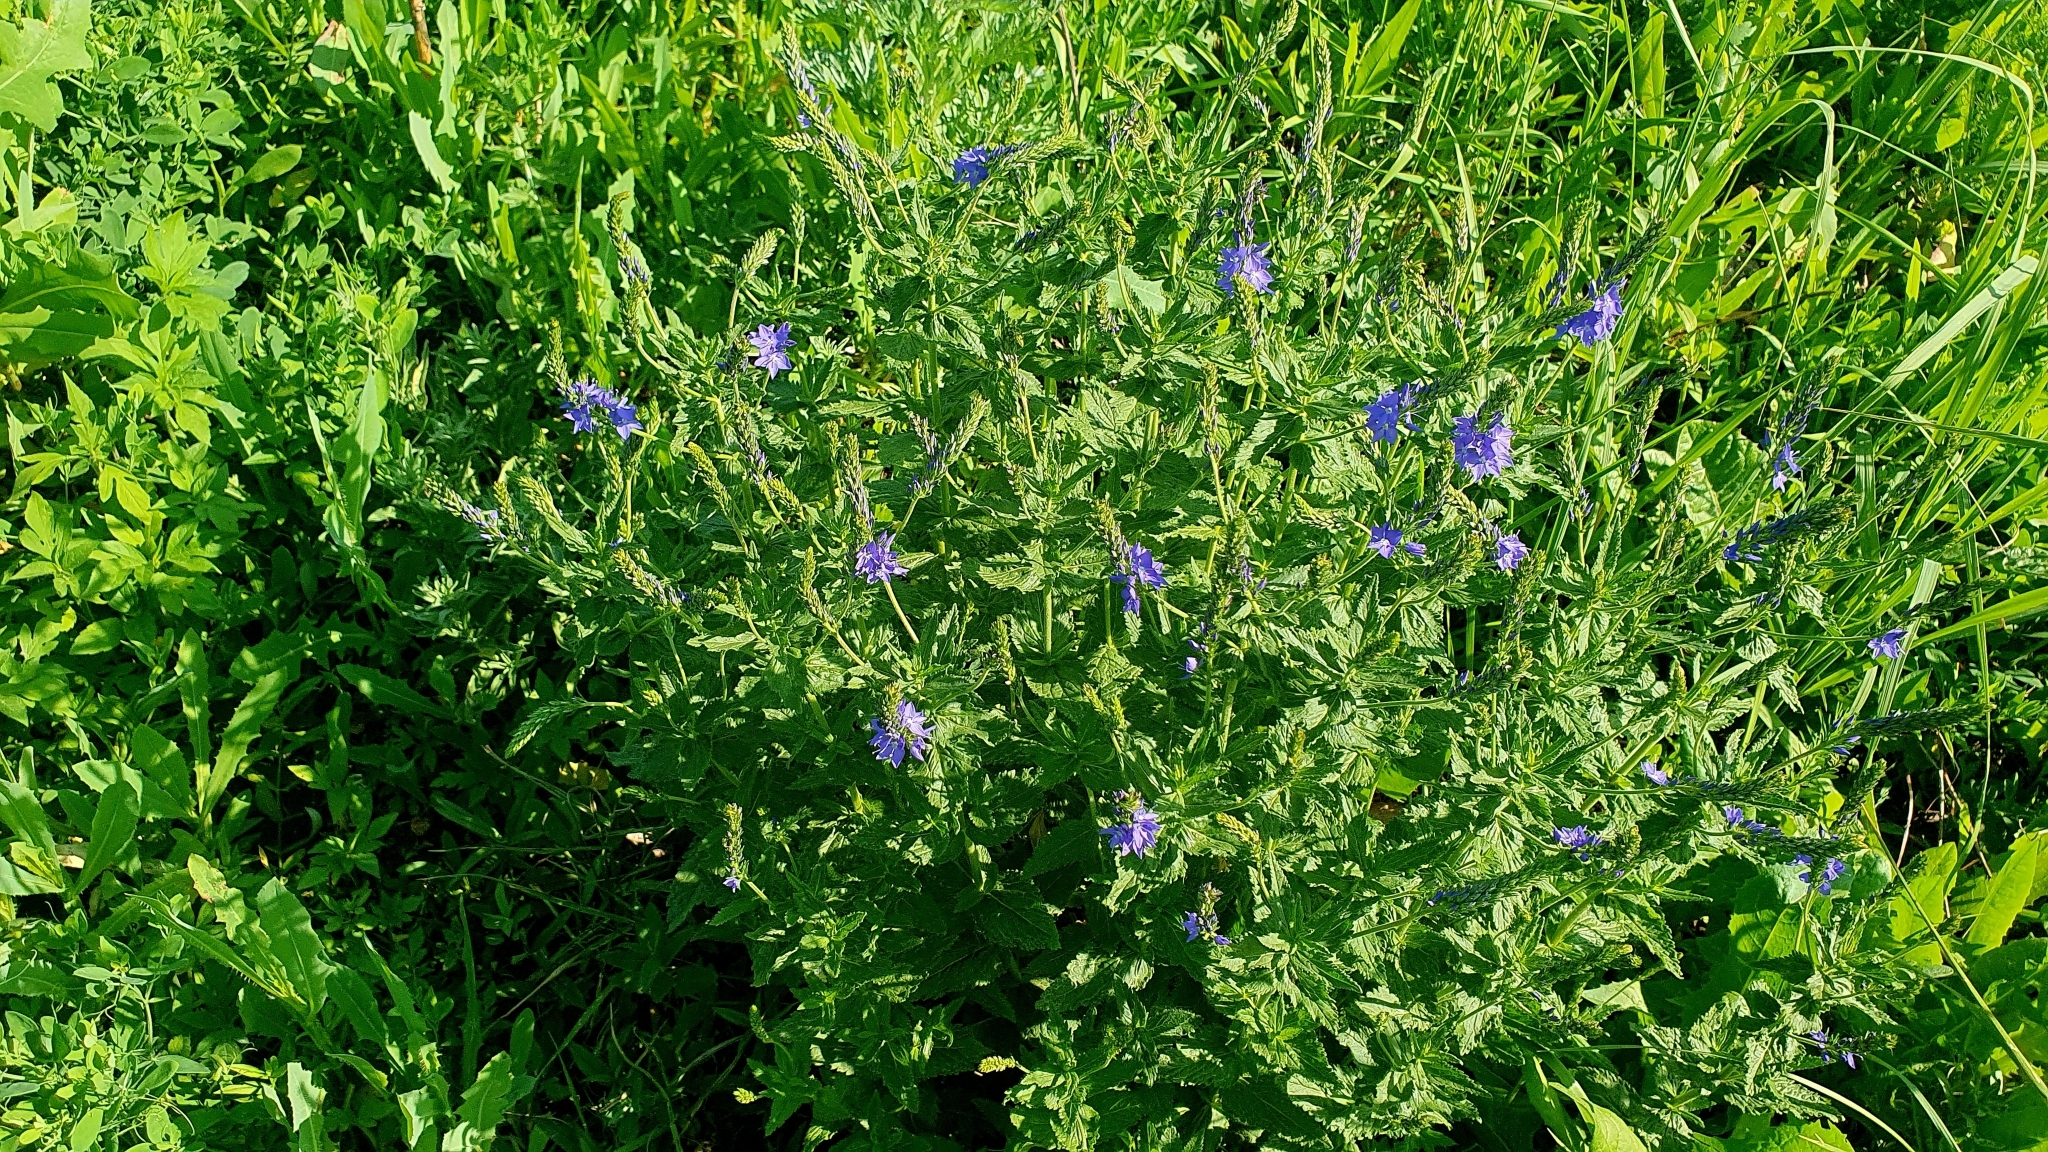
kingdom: Plantae
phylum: Tracheophyta
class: Magnoliopsida
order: Lamiales
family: Plantaginaceae
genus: Veronica
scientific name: Veronica teucrium
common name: Large speedwell
